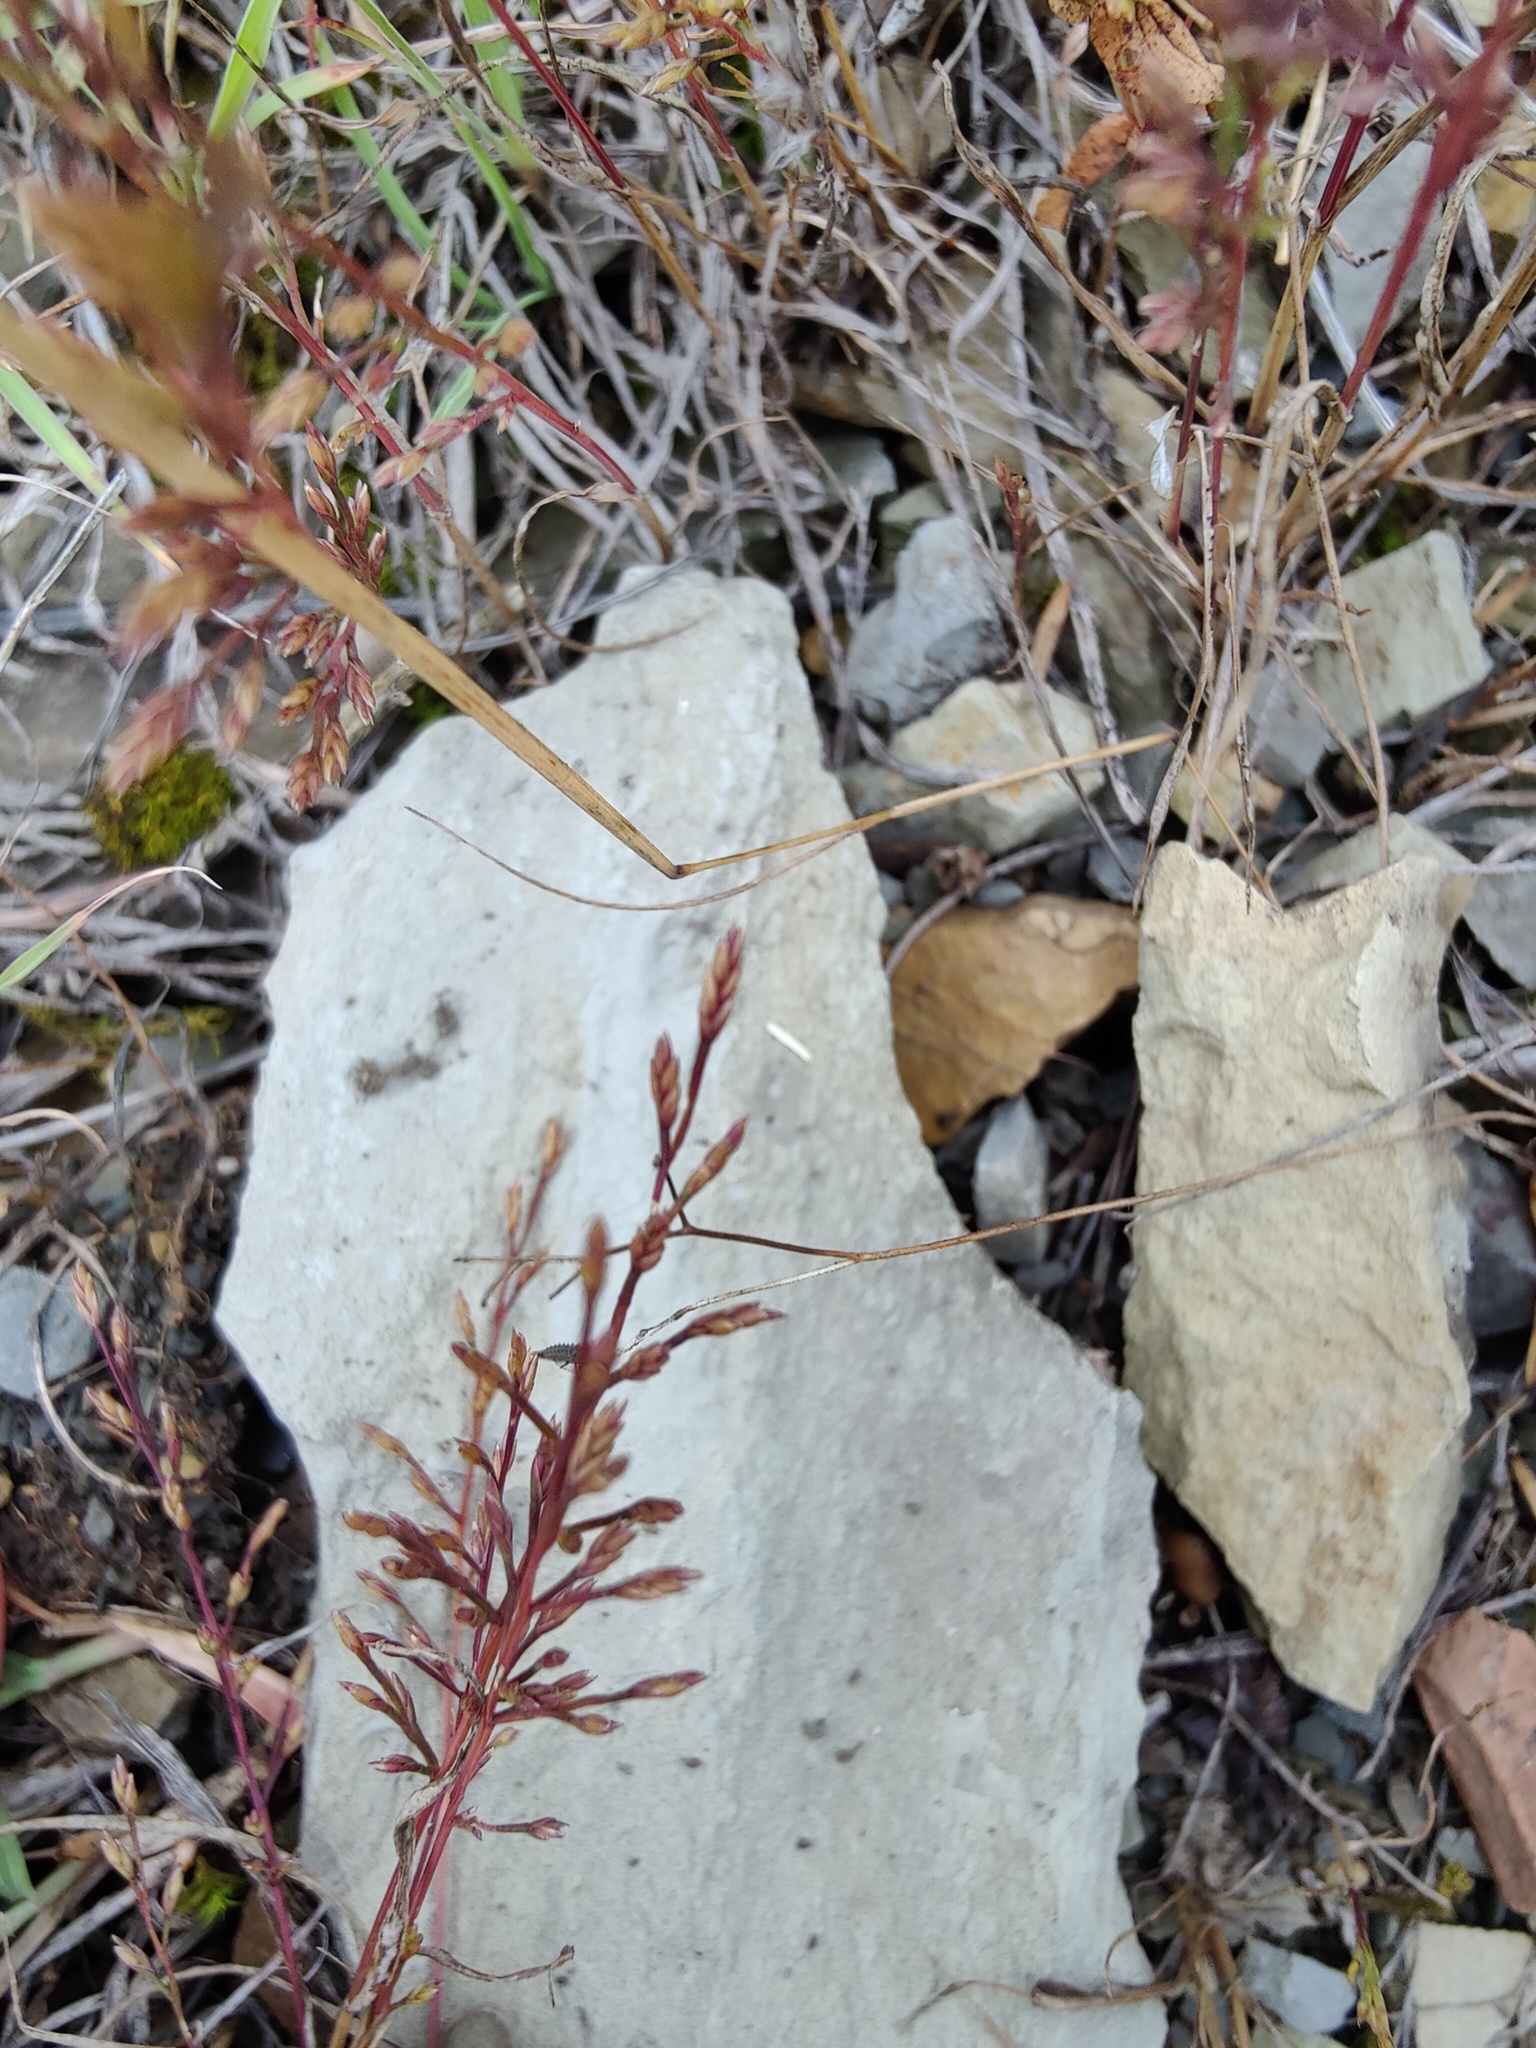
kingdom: Plantae
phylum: Tracheophyta
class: Liliopsida
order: Poales
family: Poaceae
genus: Catapodium
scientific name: Catapodium rigidum
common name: Fern-grass
